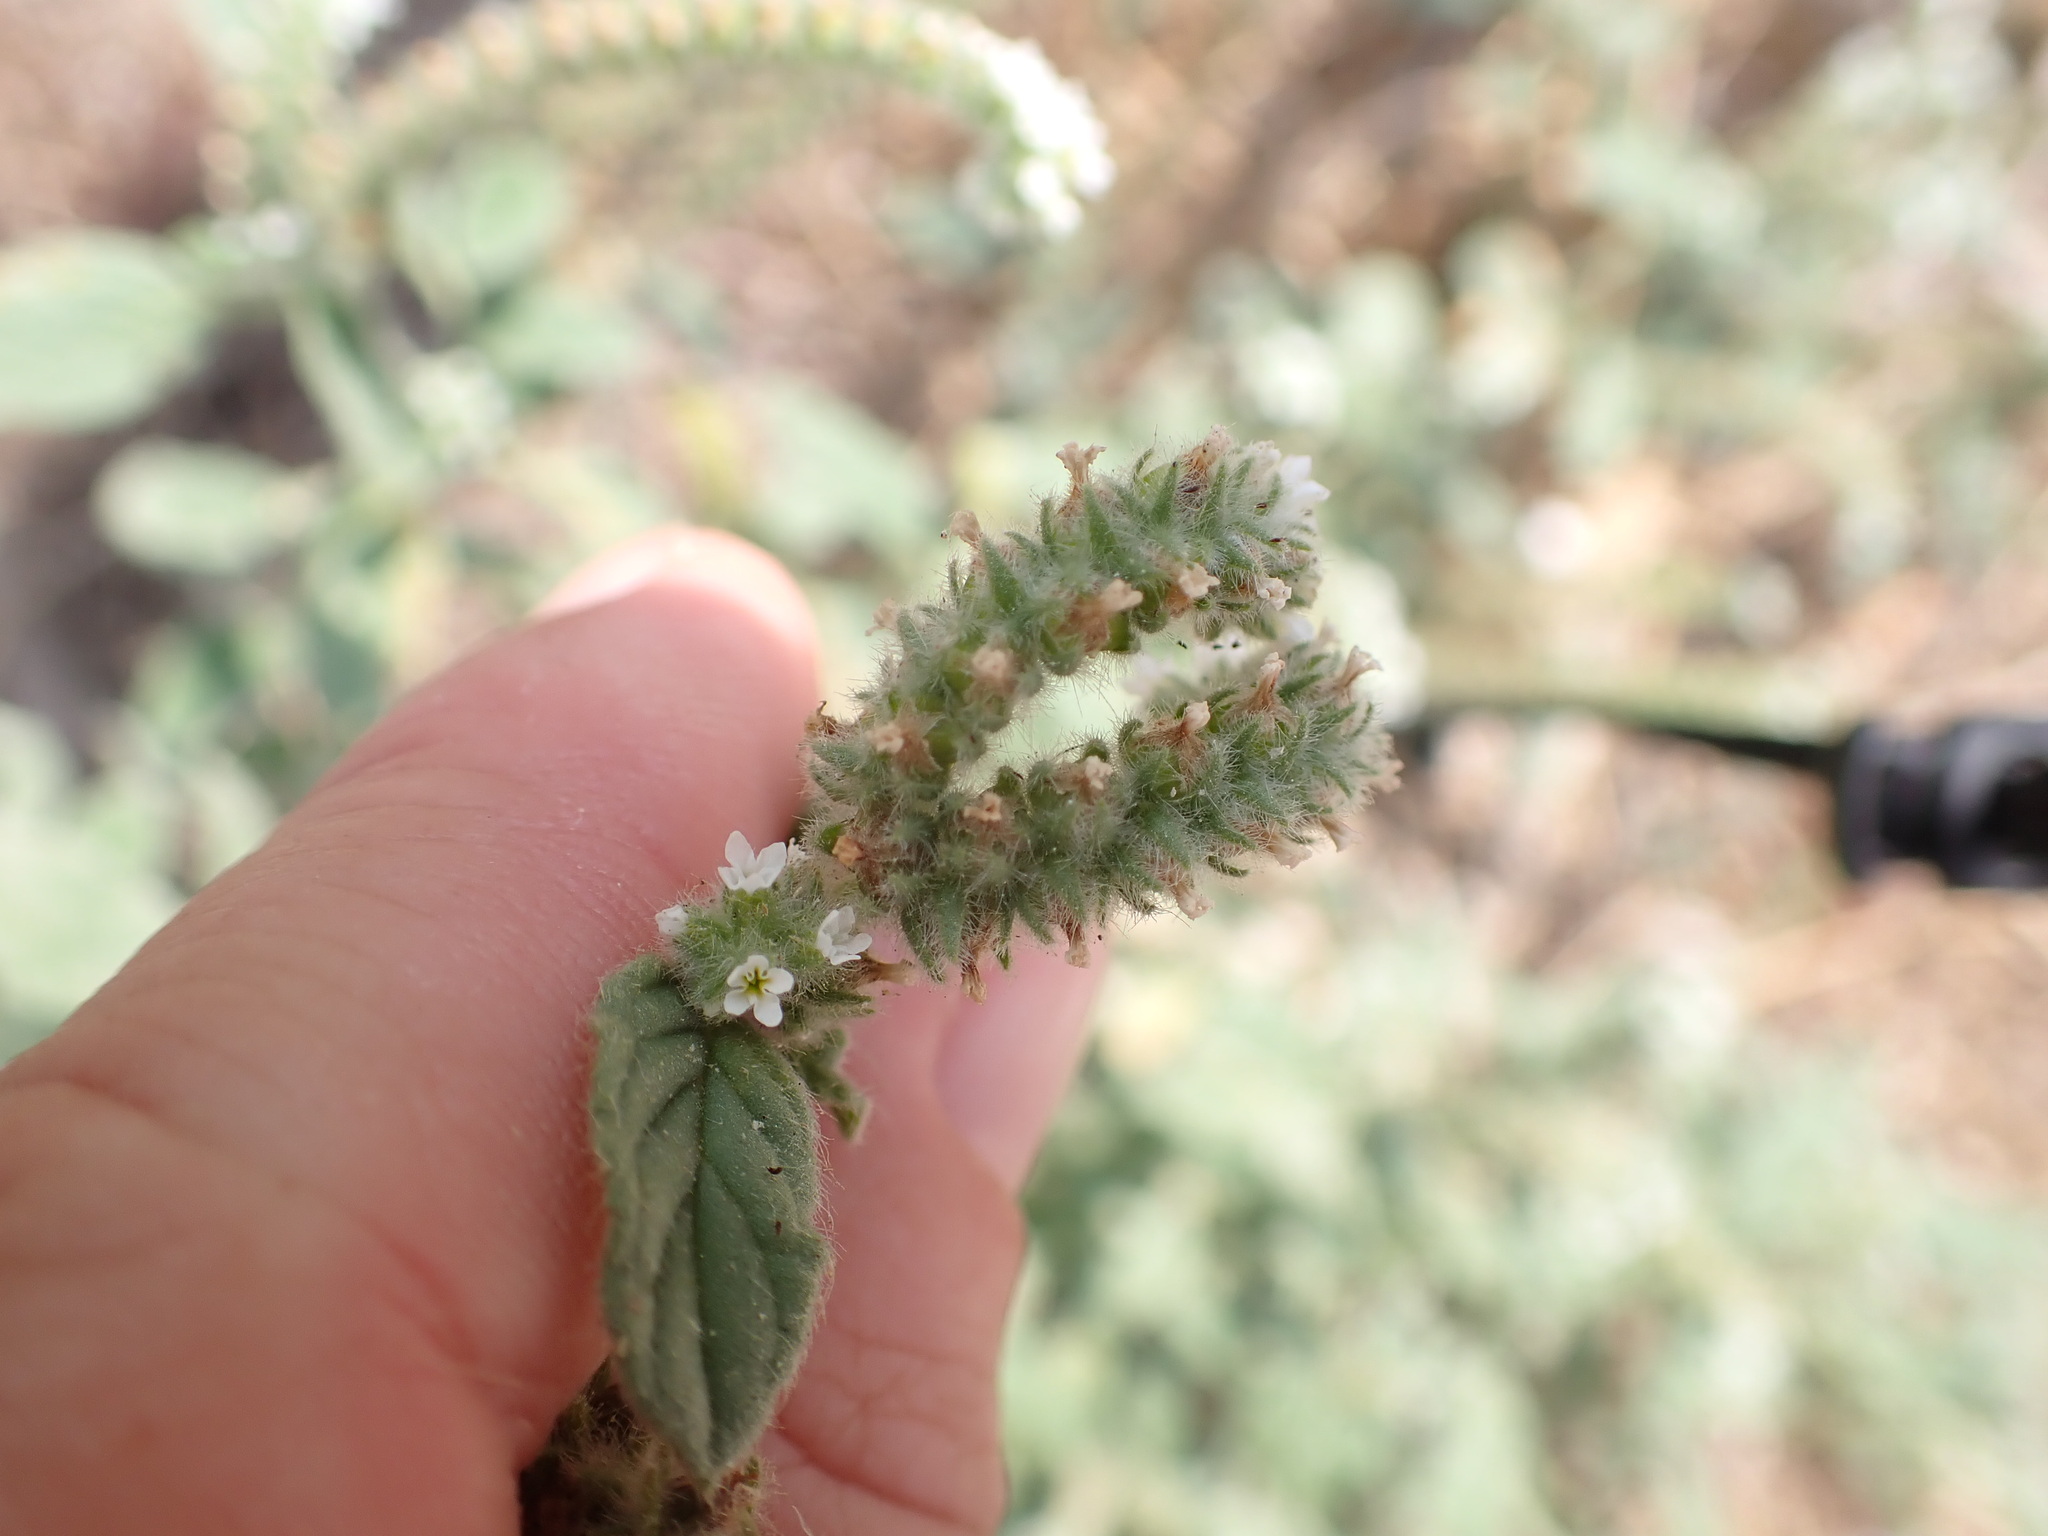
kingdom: Plantae
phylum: Tracheophyta
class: Magnoliopsida
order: Boraginales
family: Heliotropiaceae
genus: Heliotropium
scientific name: Heliotropium europaeum
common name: European heliotrope
